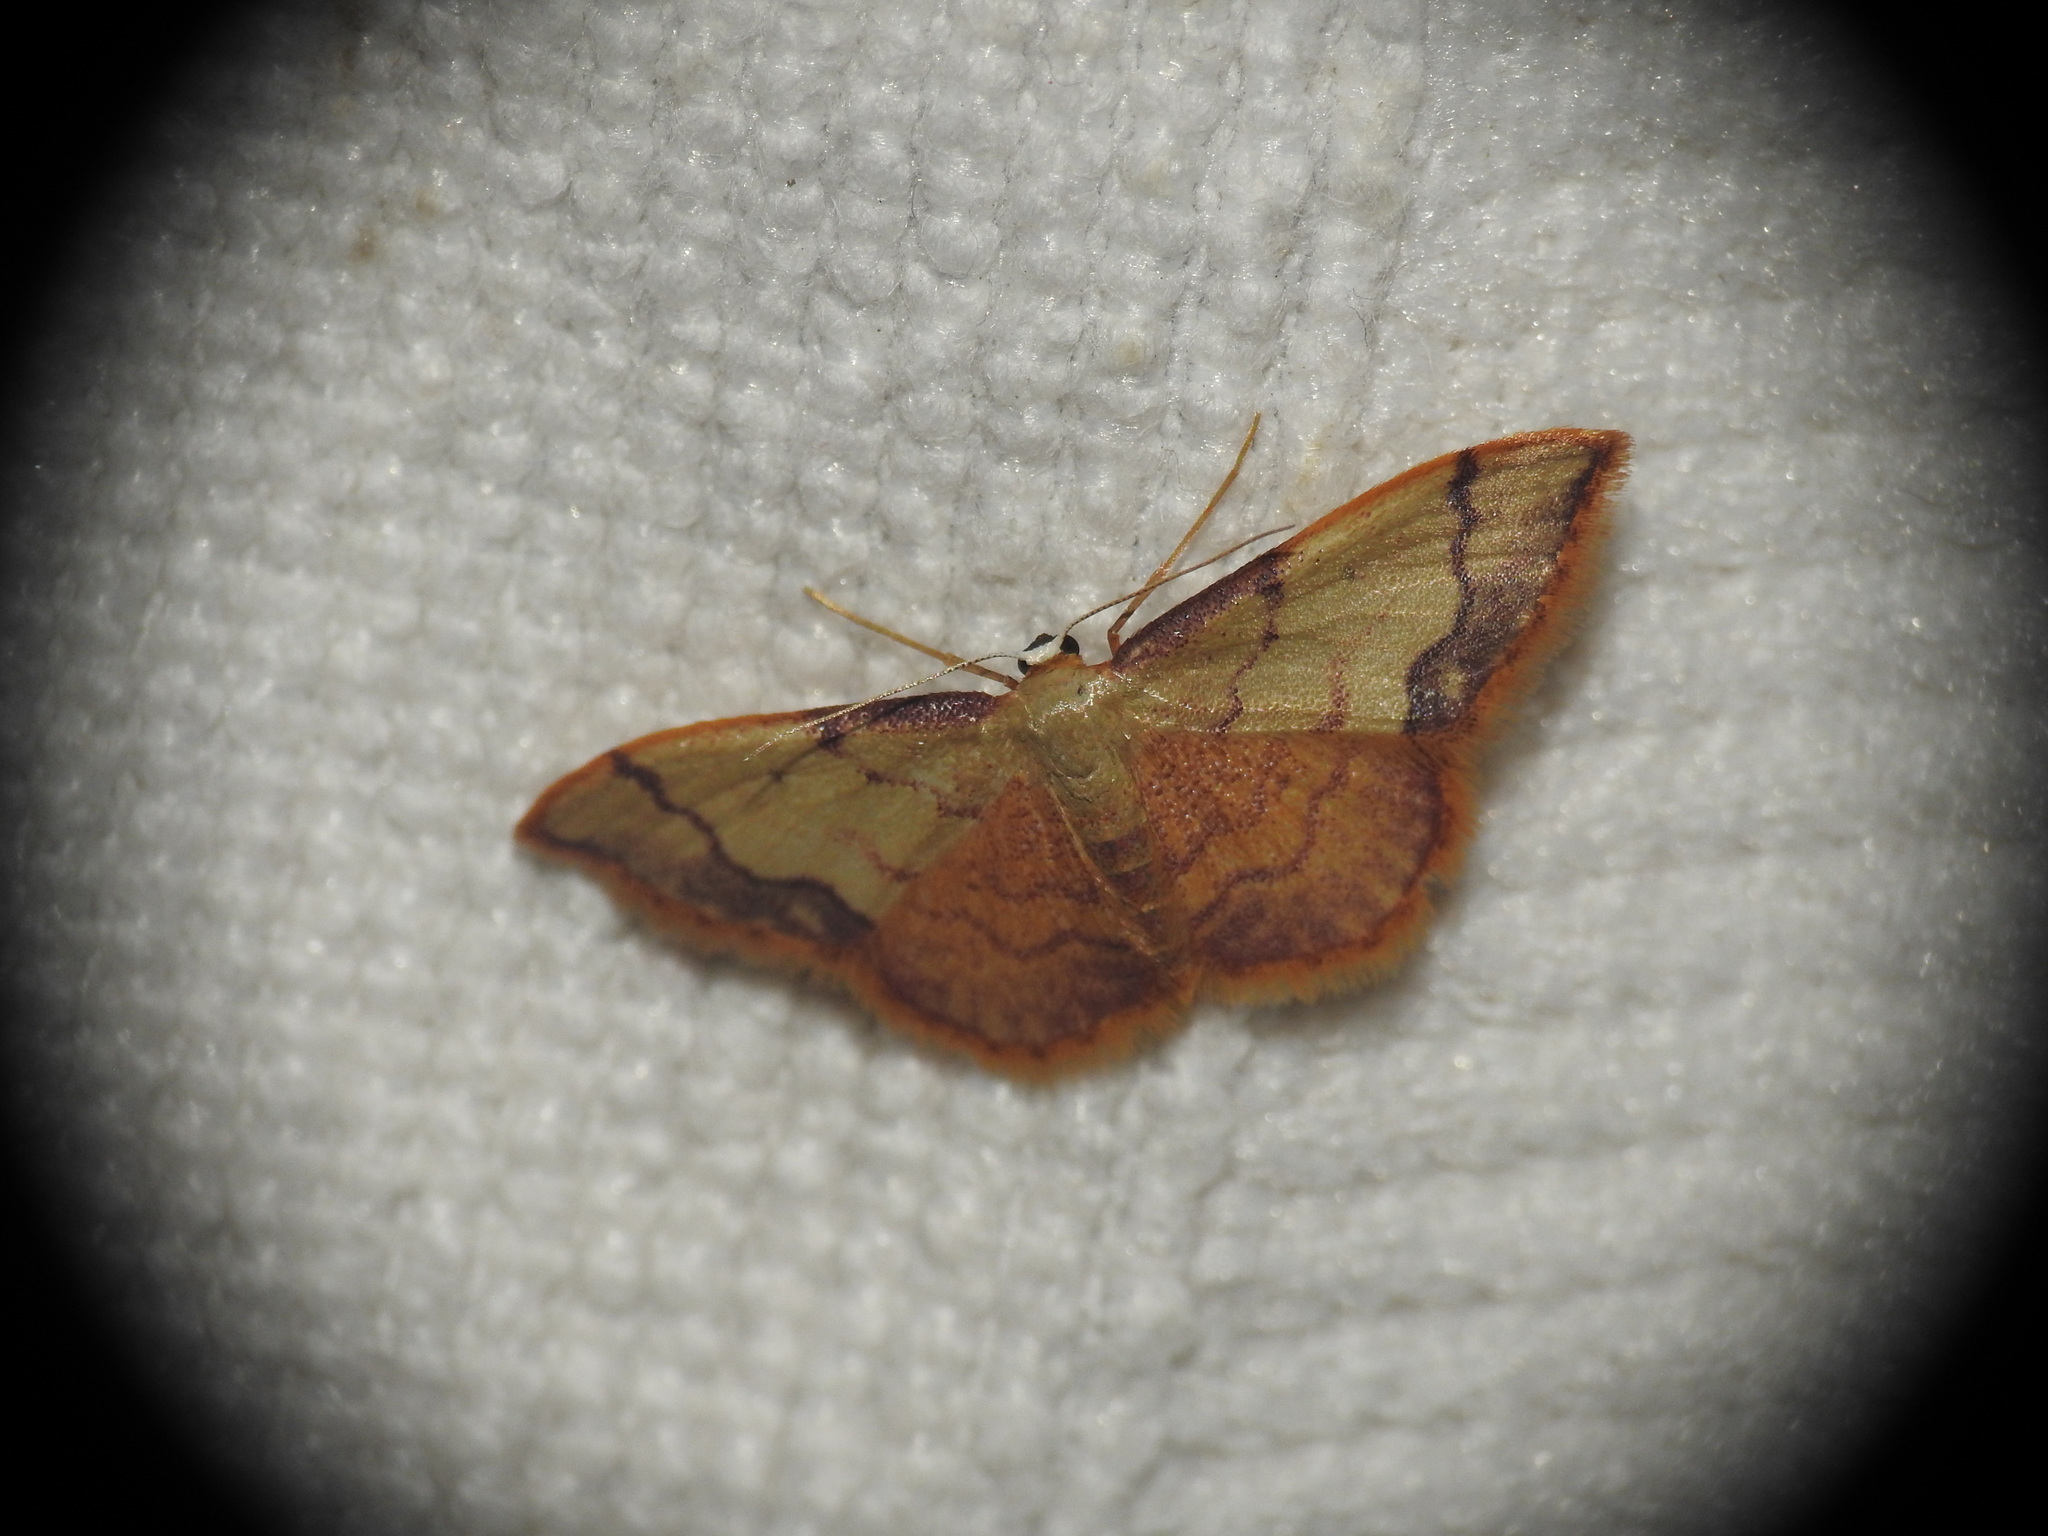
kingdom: Animalia
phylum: Arthropoda
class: Insecta
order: Lepidoptera
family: Geometridae
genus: Idaea
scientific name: Idaea ostrinaria
